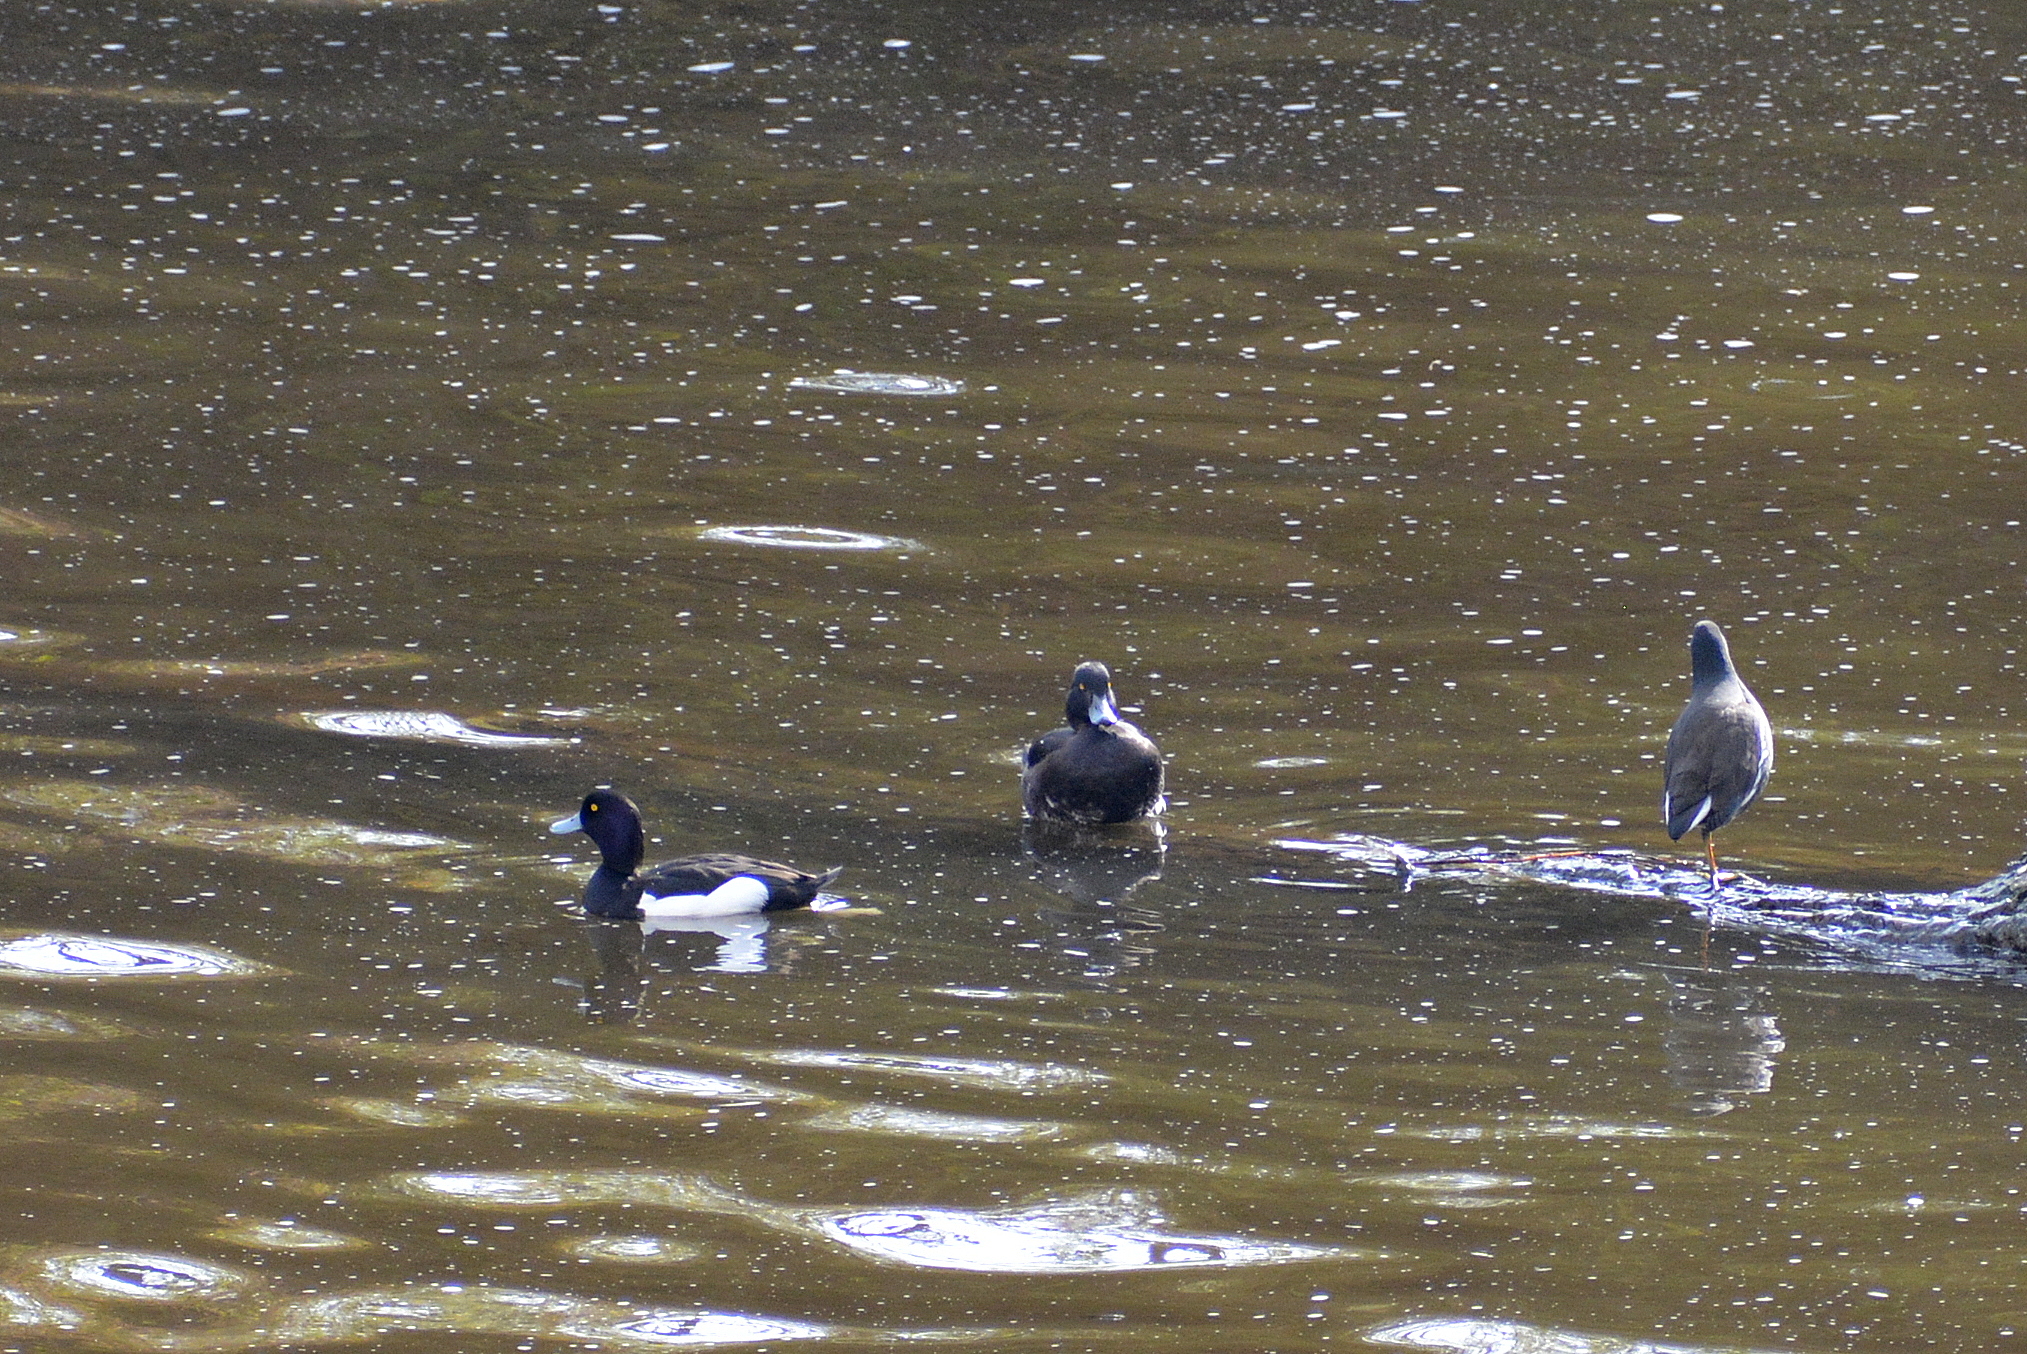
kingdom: Animalia
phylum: Chordata
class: Aves
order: Anseriformes
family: Anatidae
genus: Aythya
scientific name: Aythya fuligula
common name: Tufted duck
